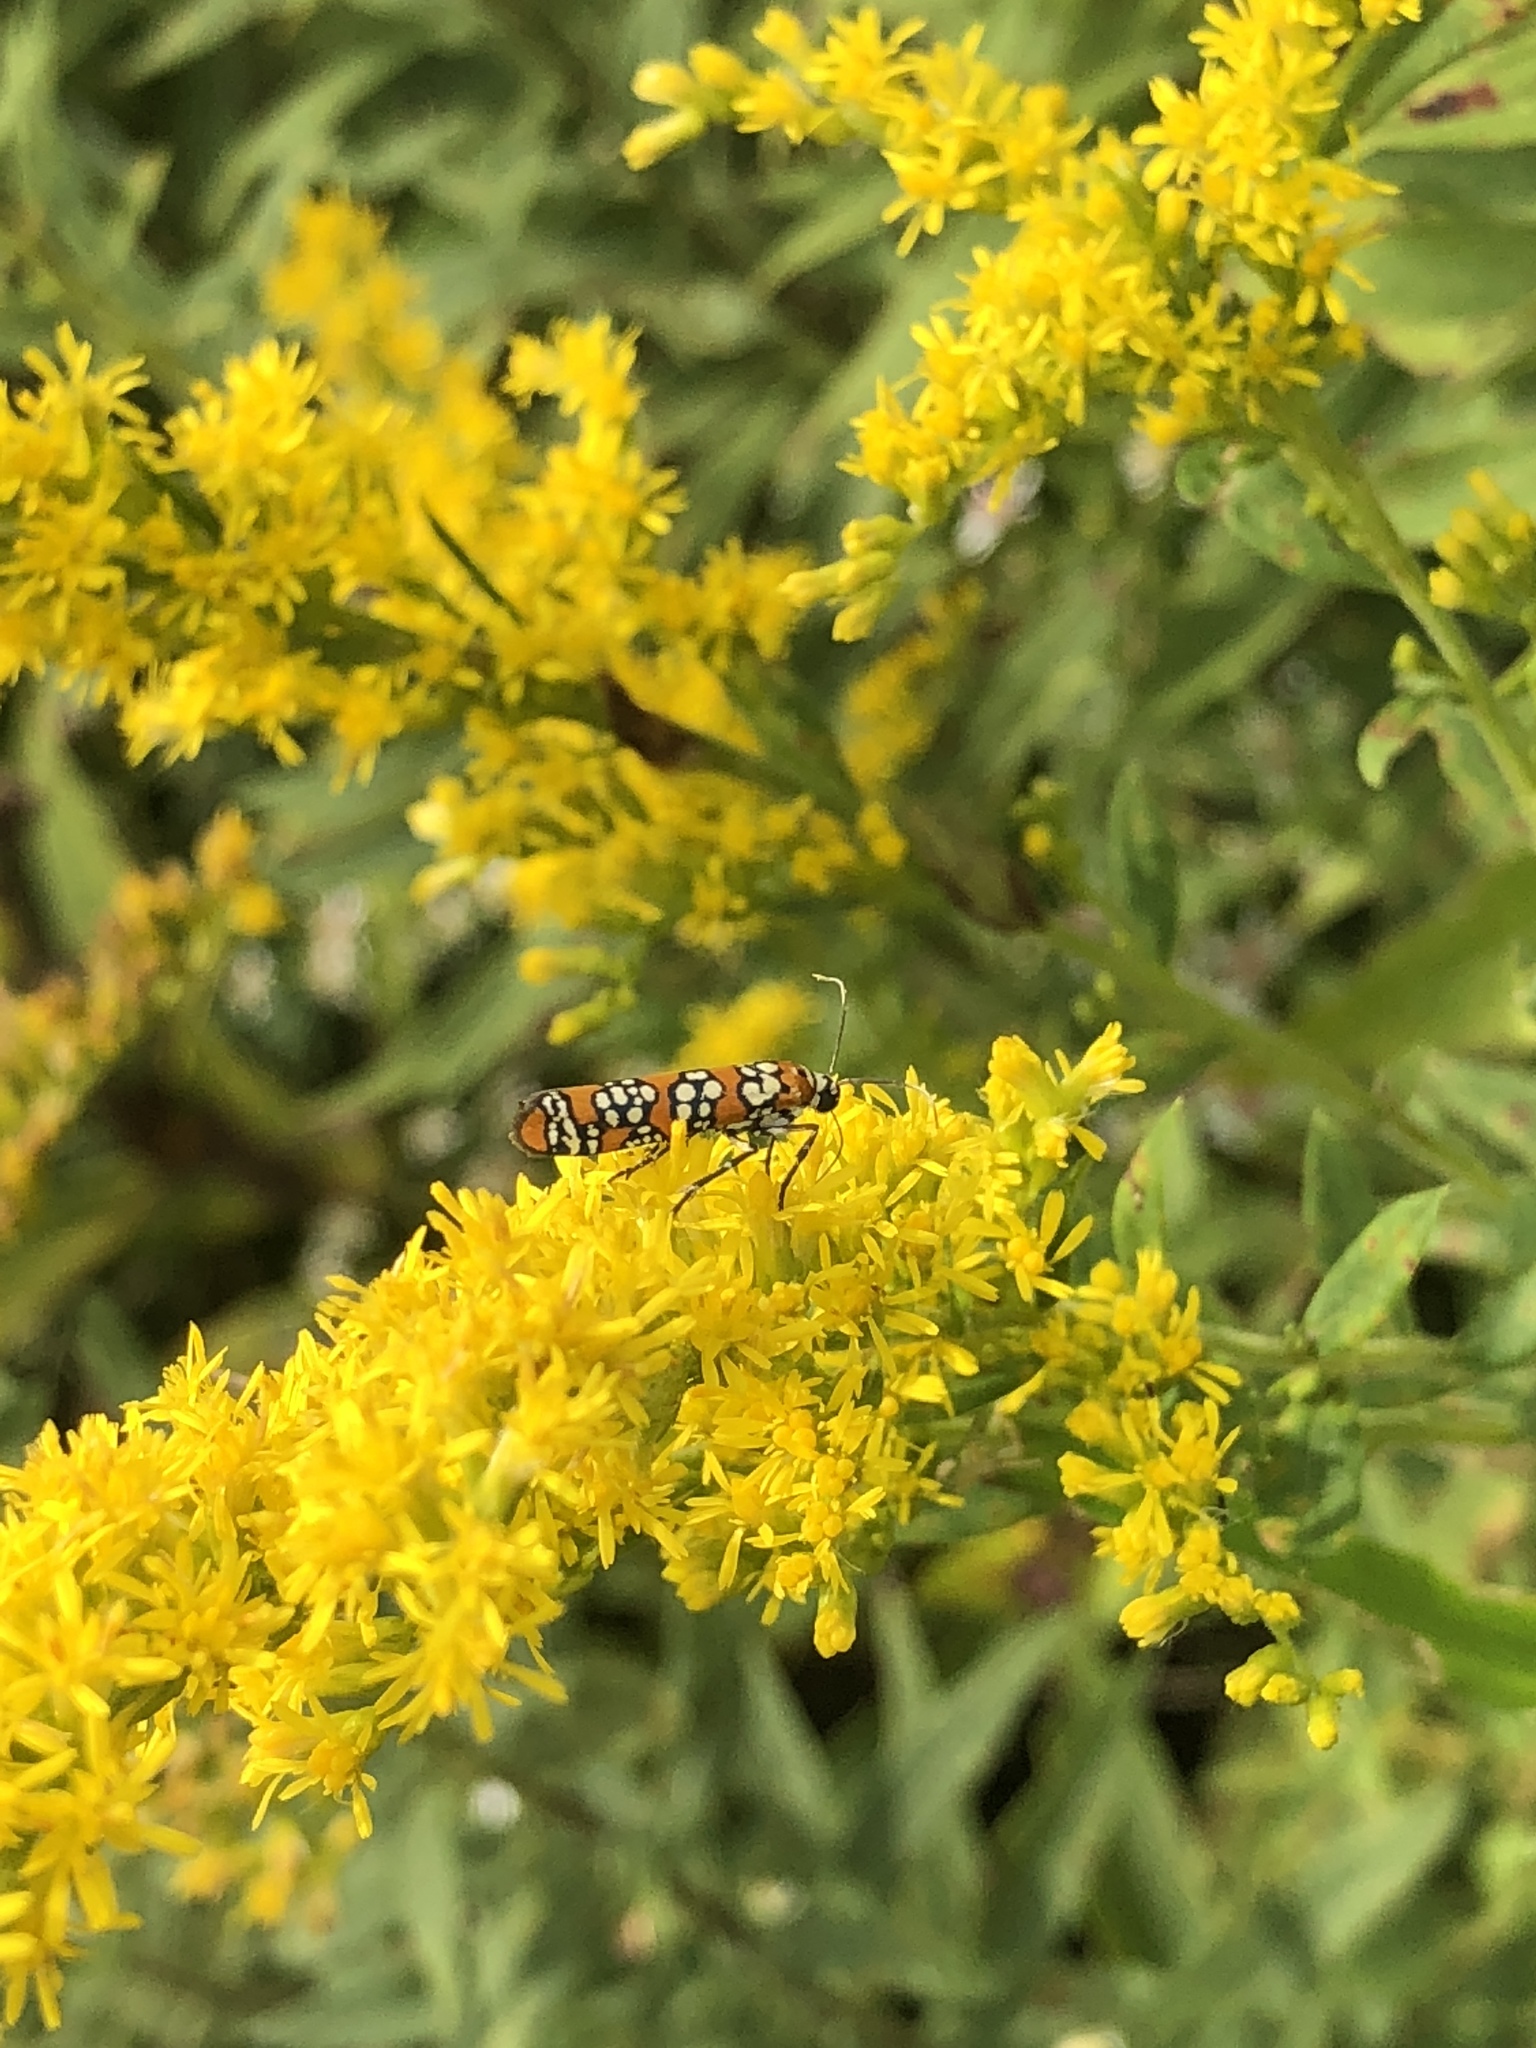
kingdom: Animalia
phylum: Arthropoda
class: Insecta
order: Lepidoptera
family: Attevidae
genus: Atteva
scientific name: Atteva punctella
